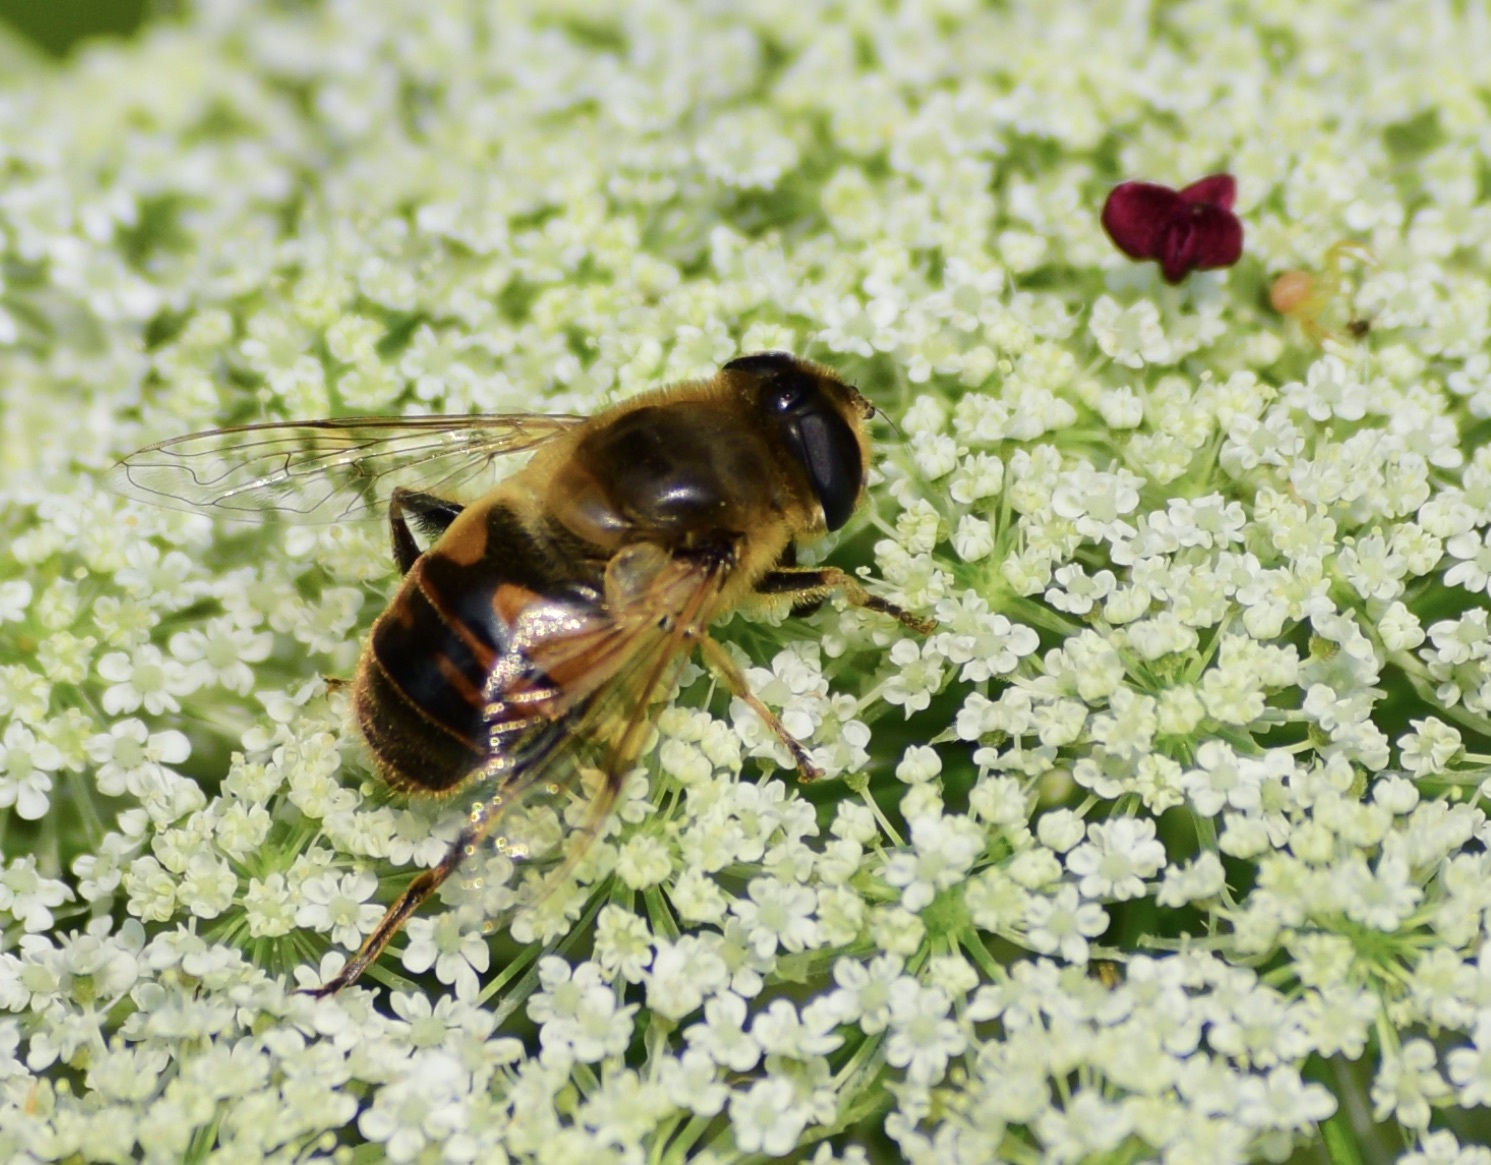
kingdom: Animalia
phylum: Arthropoda
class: Insecta
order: Diptera
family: Syrphidae
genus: Eristalis
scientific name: Eristalis tenax
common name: Drone fly
